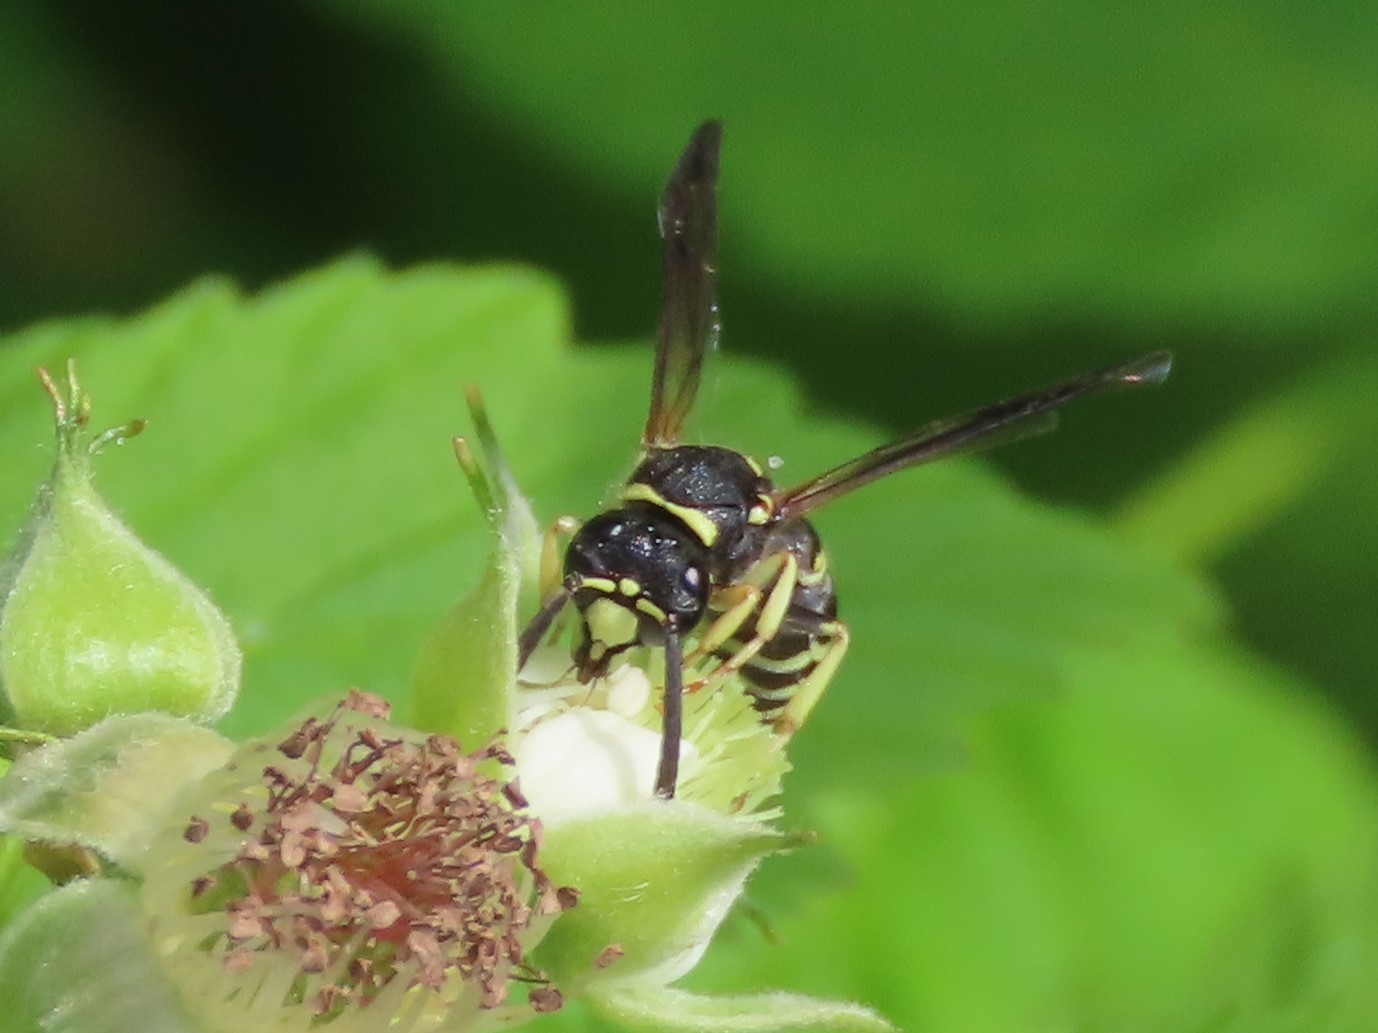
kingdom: Animalia
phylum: Arthropoda
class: Insecta
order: Hymenoptera
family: Vespidae
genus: Ancistrocerus
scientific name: Ancistrocerus
